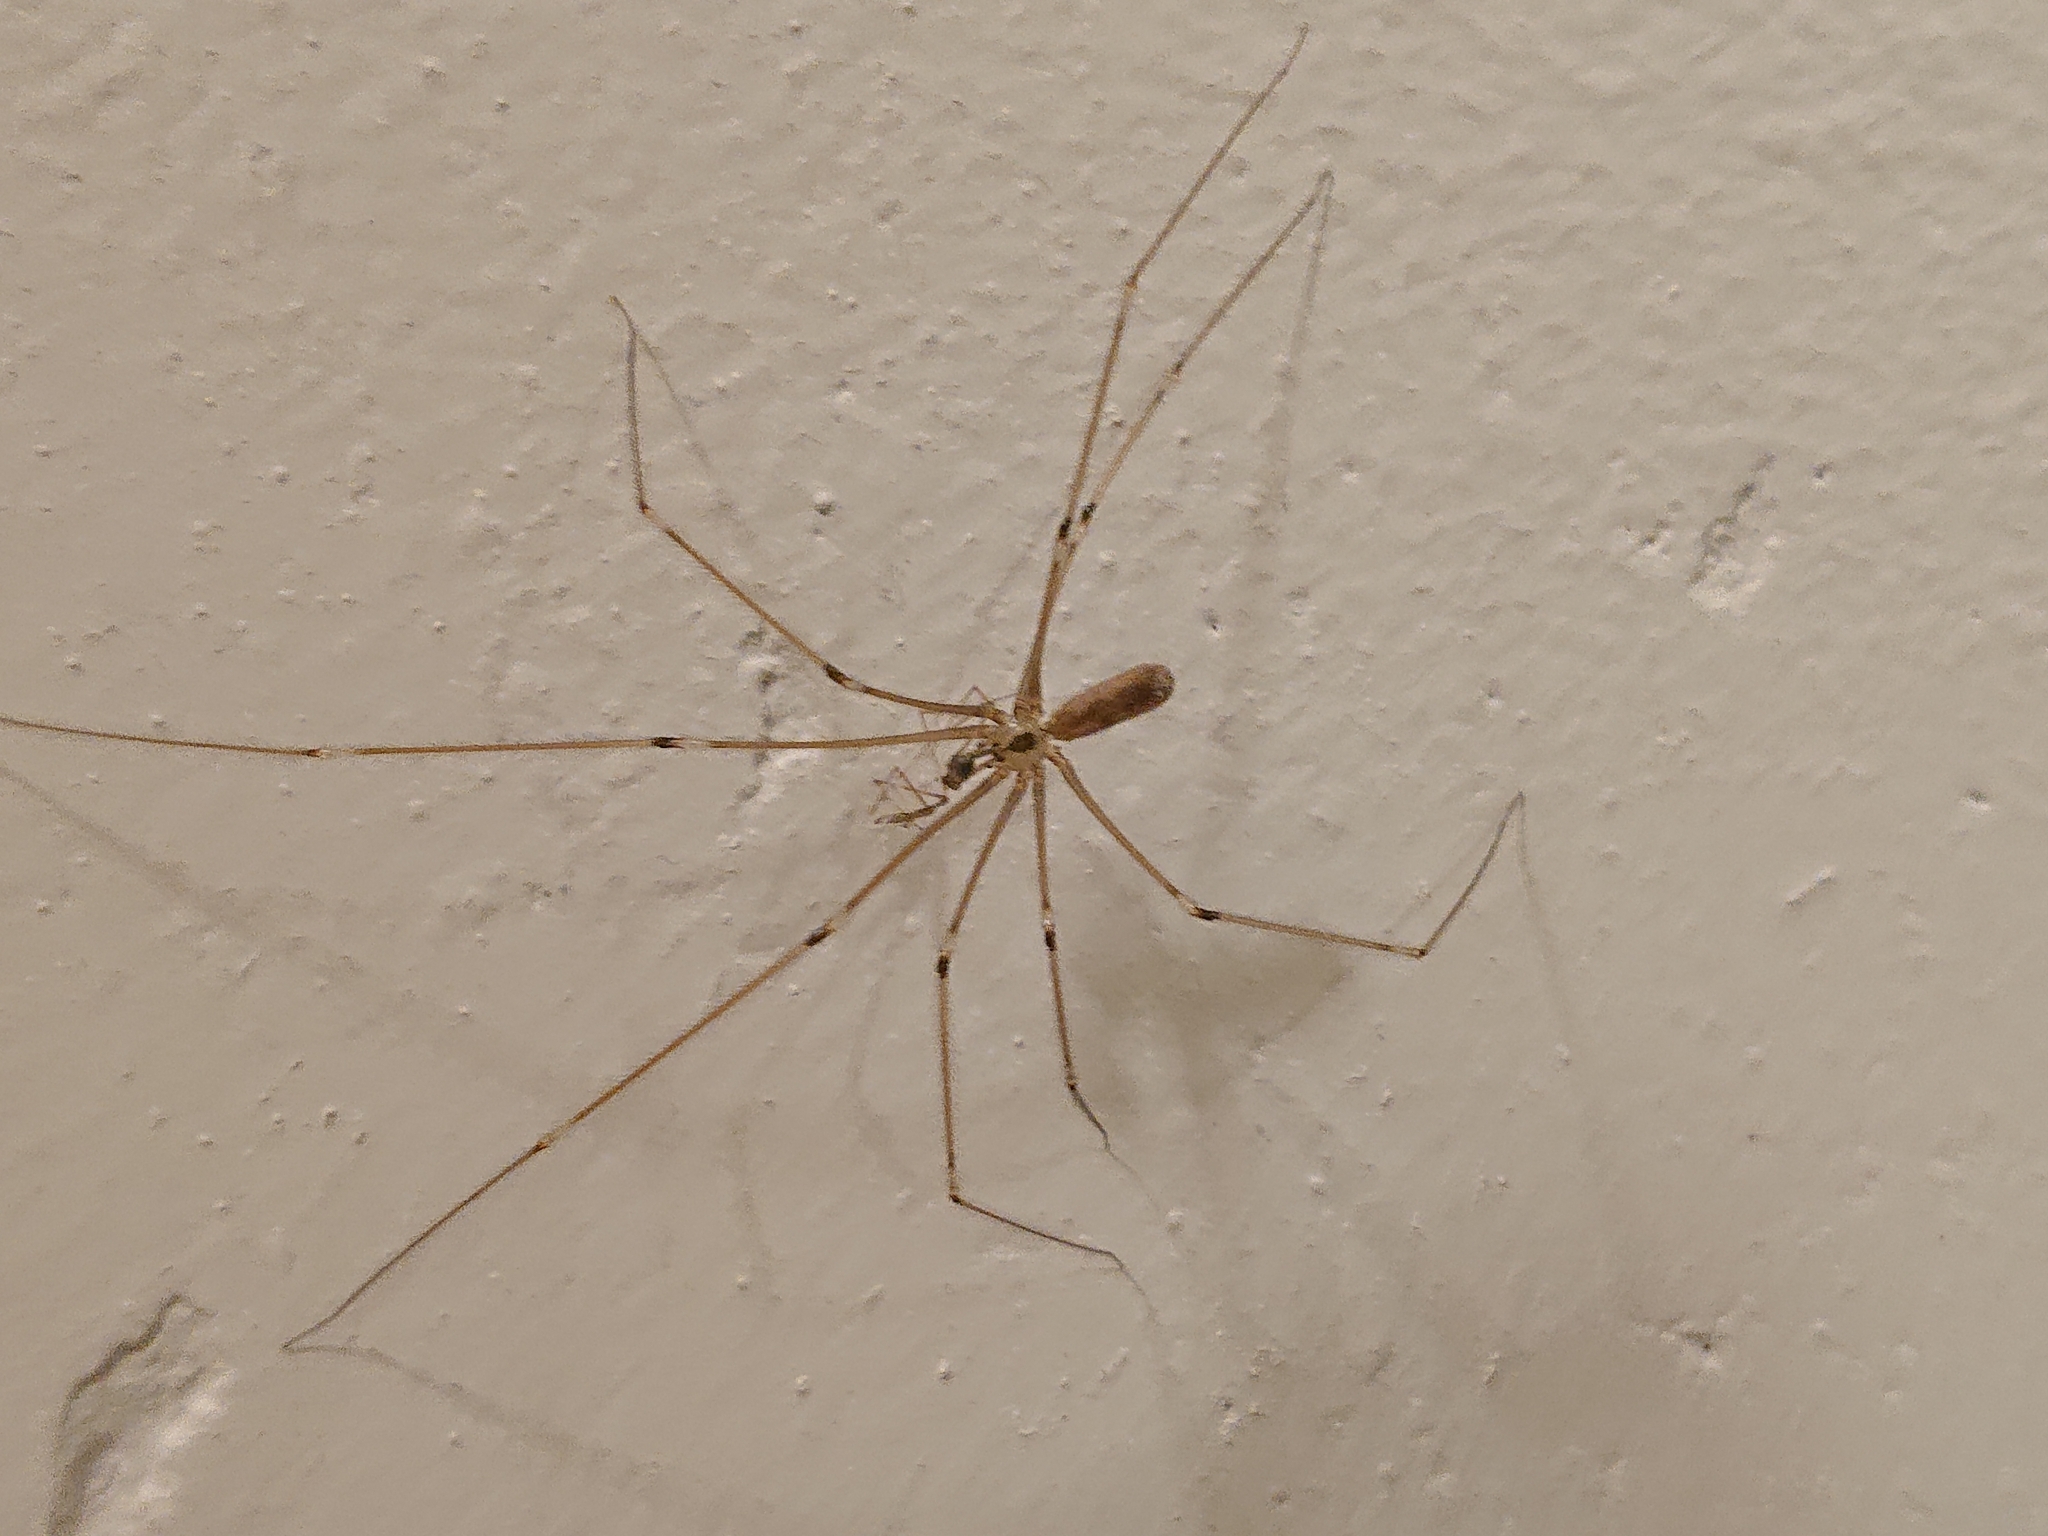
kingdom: Animalia
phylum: Arthropoda
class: Arachnida
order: Araneae
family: Pholcidae
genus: Pholcus
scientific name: Pholcus phalangioides
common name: Longbodied cellar spider
